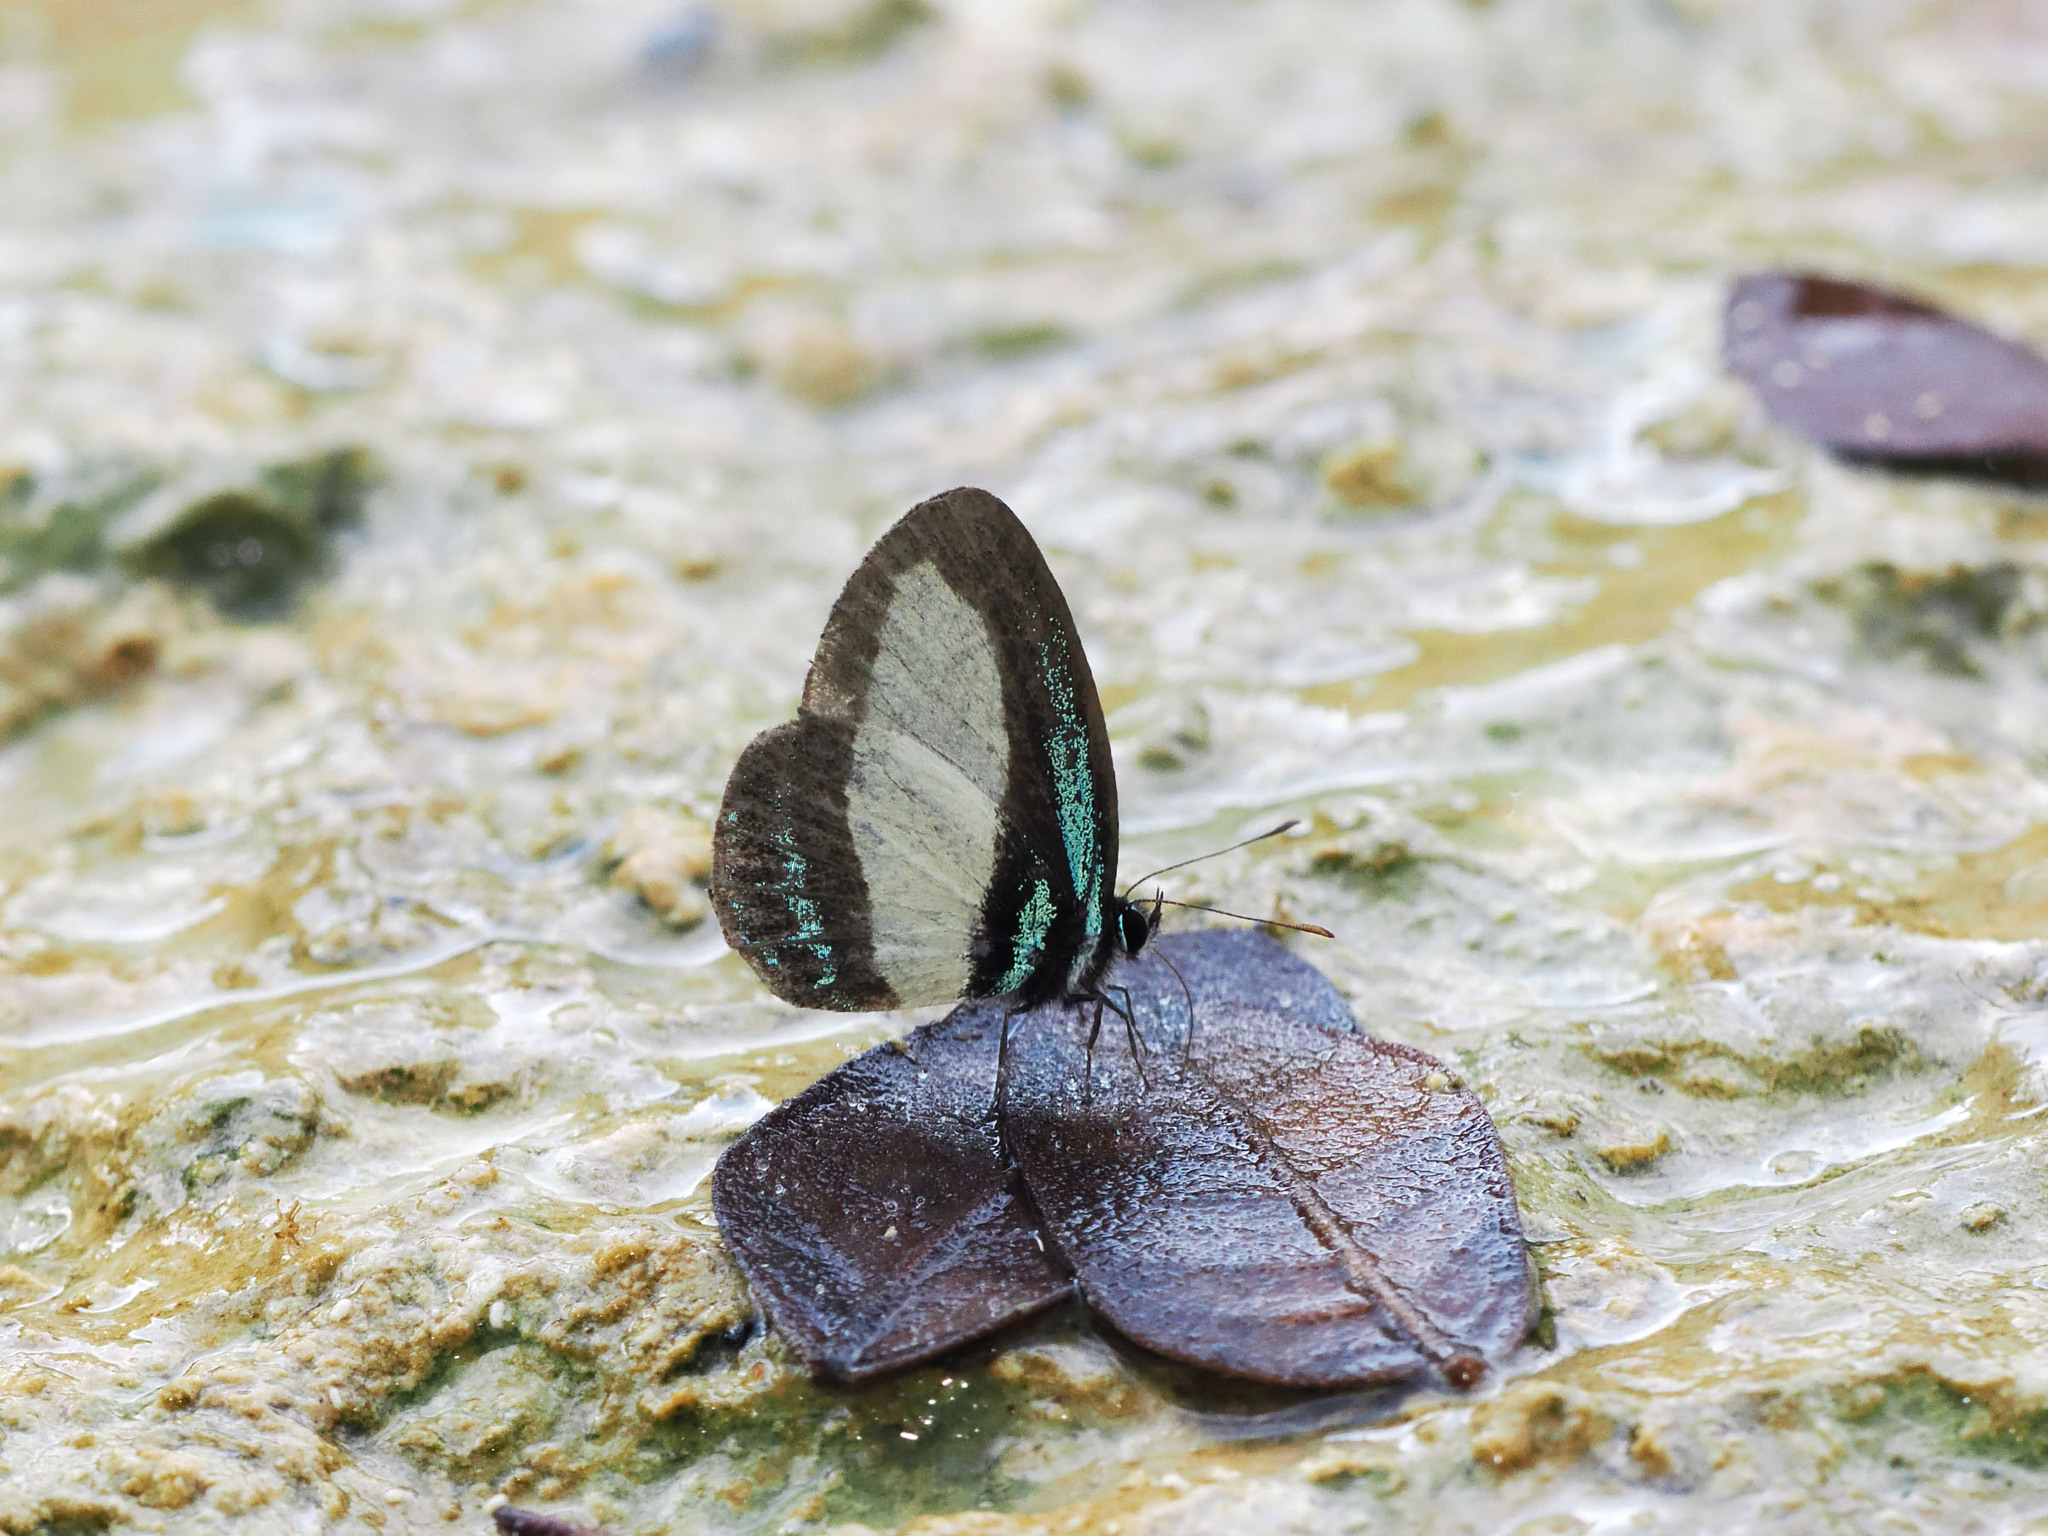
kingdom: Animalia
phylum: Arthropoda
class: Insecta
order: Lepidoptera
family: Lycaenidae
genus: Psychonotis
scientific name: Psychonotis caelius
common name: Small green banded blue
